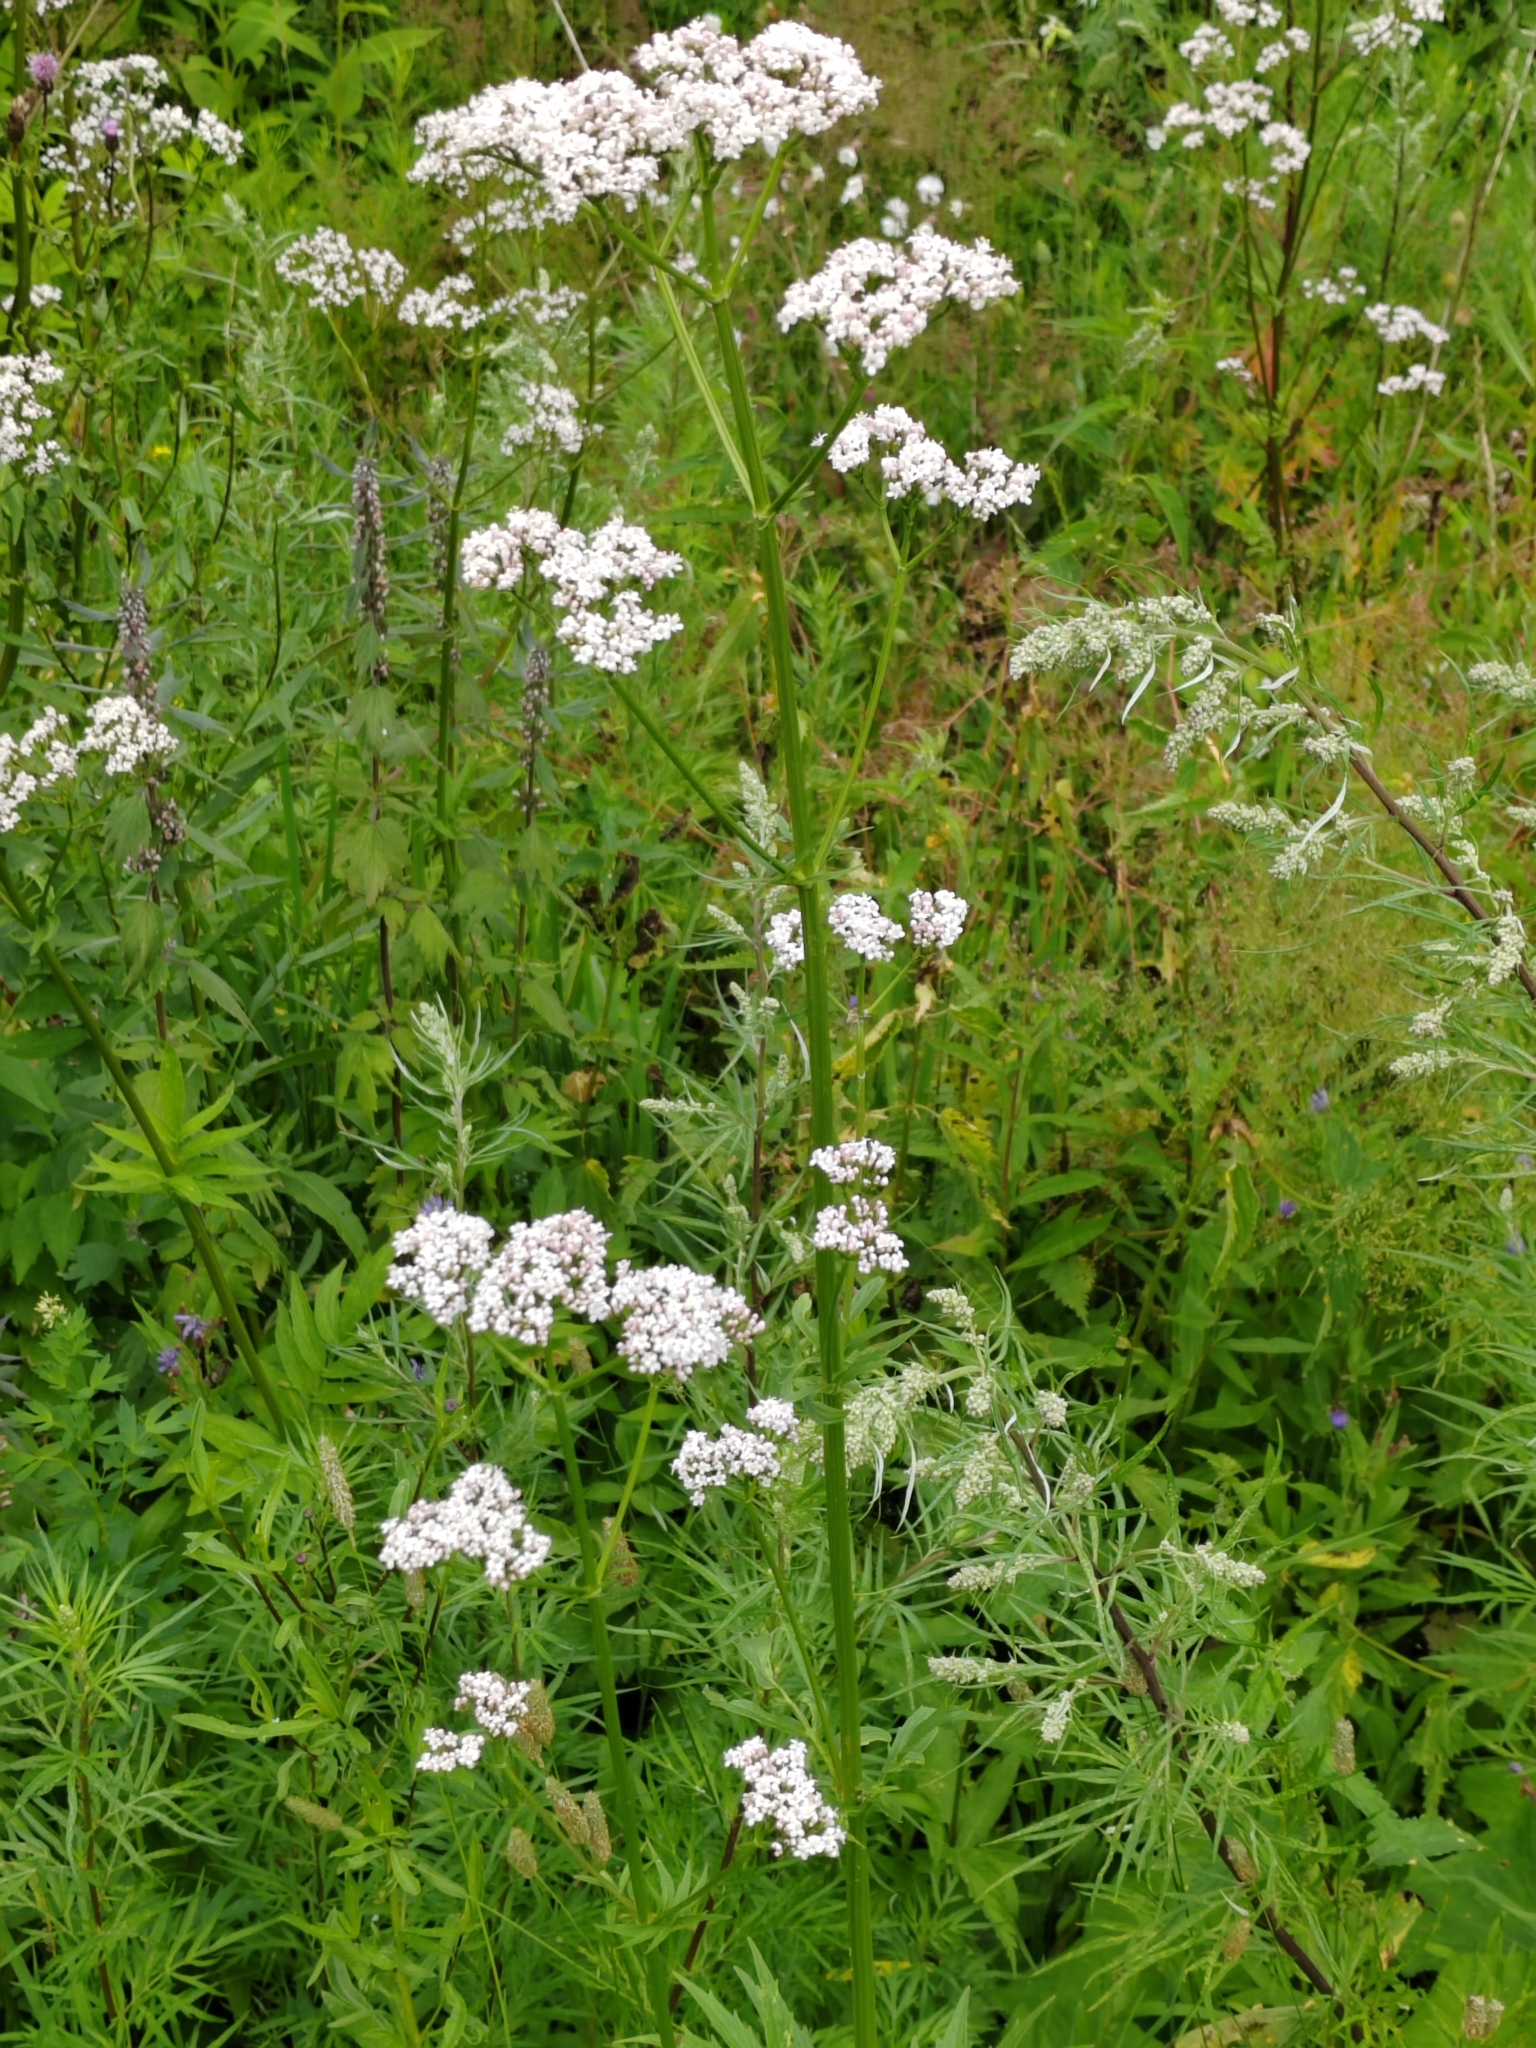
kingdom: Plantae
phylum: Tracheophyta
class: Magnoliopsida
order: Dipsacales
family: Caprifoliaceae
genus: Valeriana
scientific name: Valeriana wolgensis
